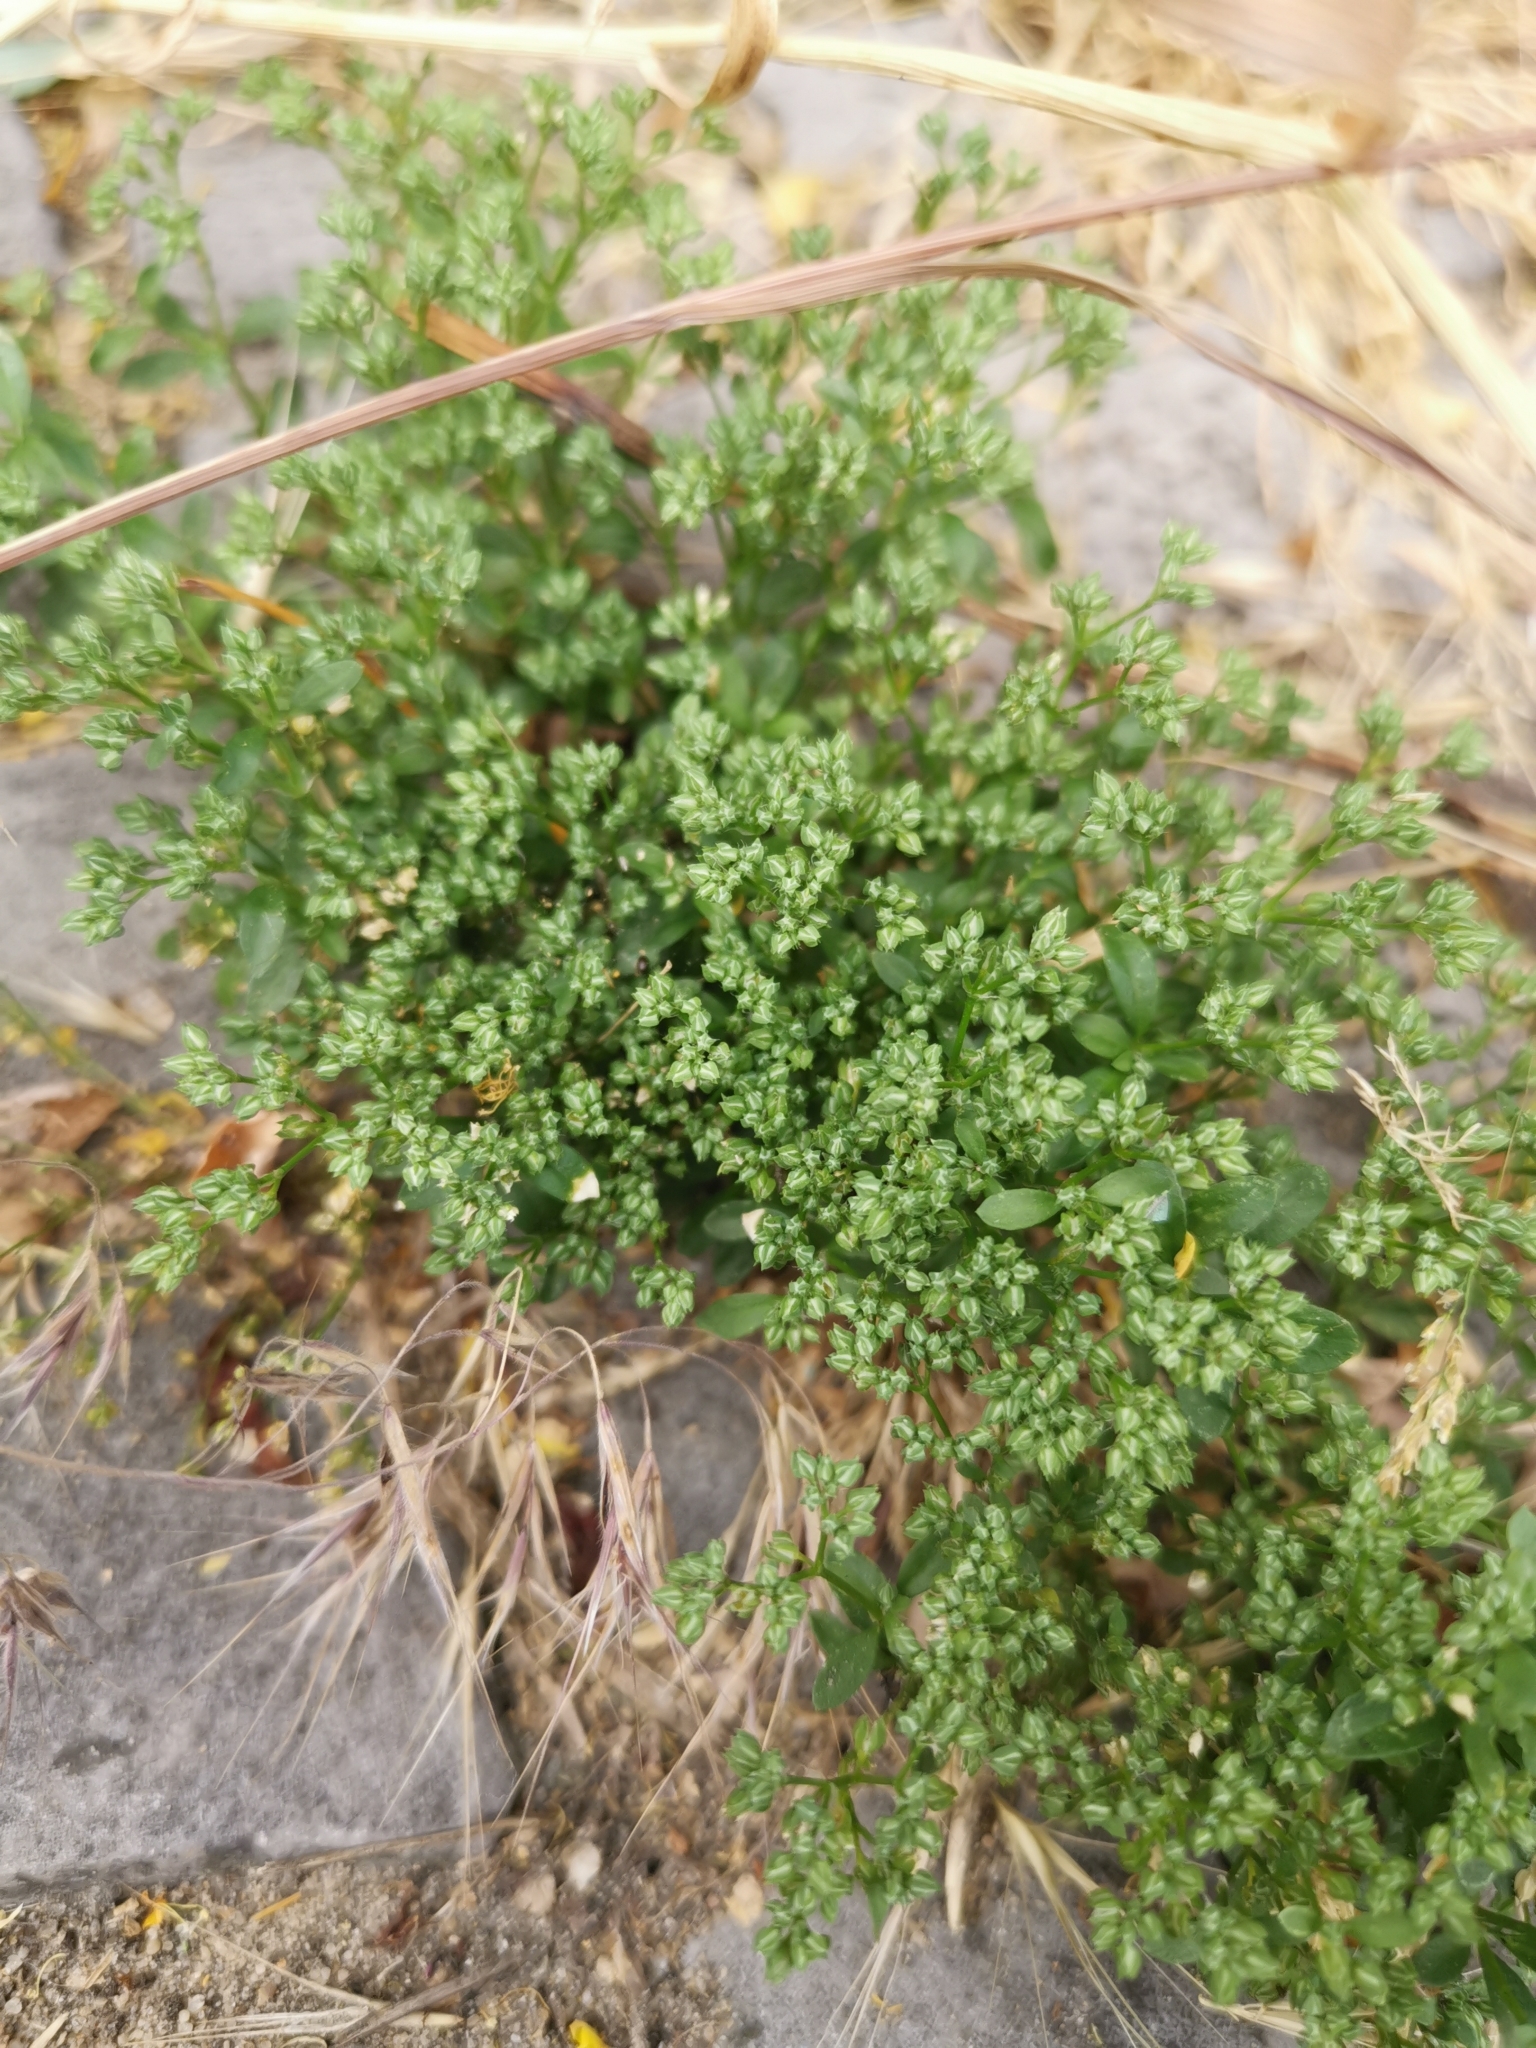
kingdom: Plantae
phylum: Tracheophyta
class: Magnoliopsida
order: Caryophyllales
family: Caryophyllaceae
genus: Polycarpon
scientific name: Polycarpon tetraphyllum
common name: Four-leaved all-seed
